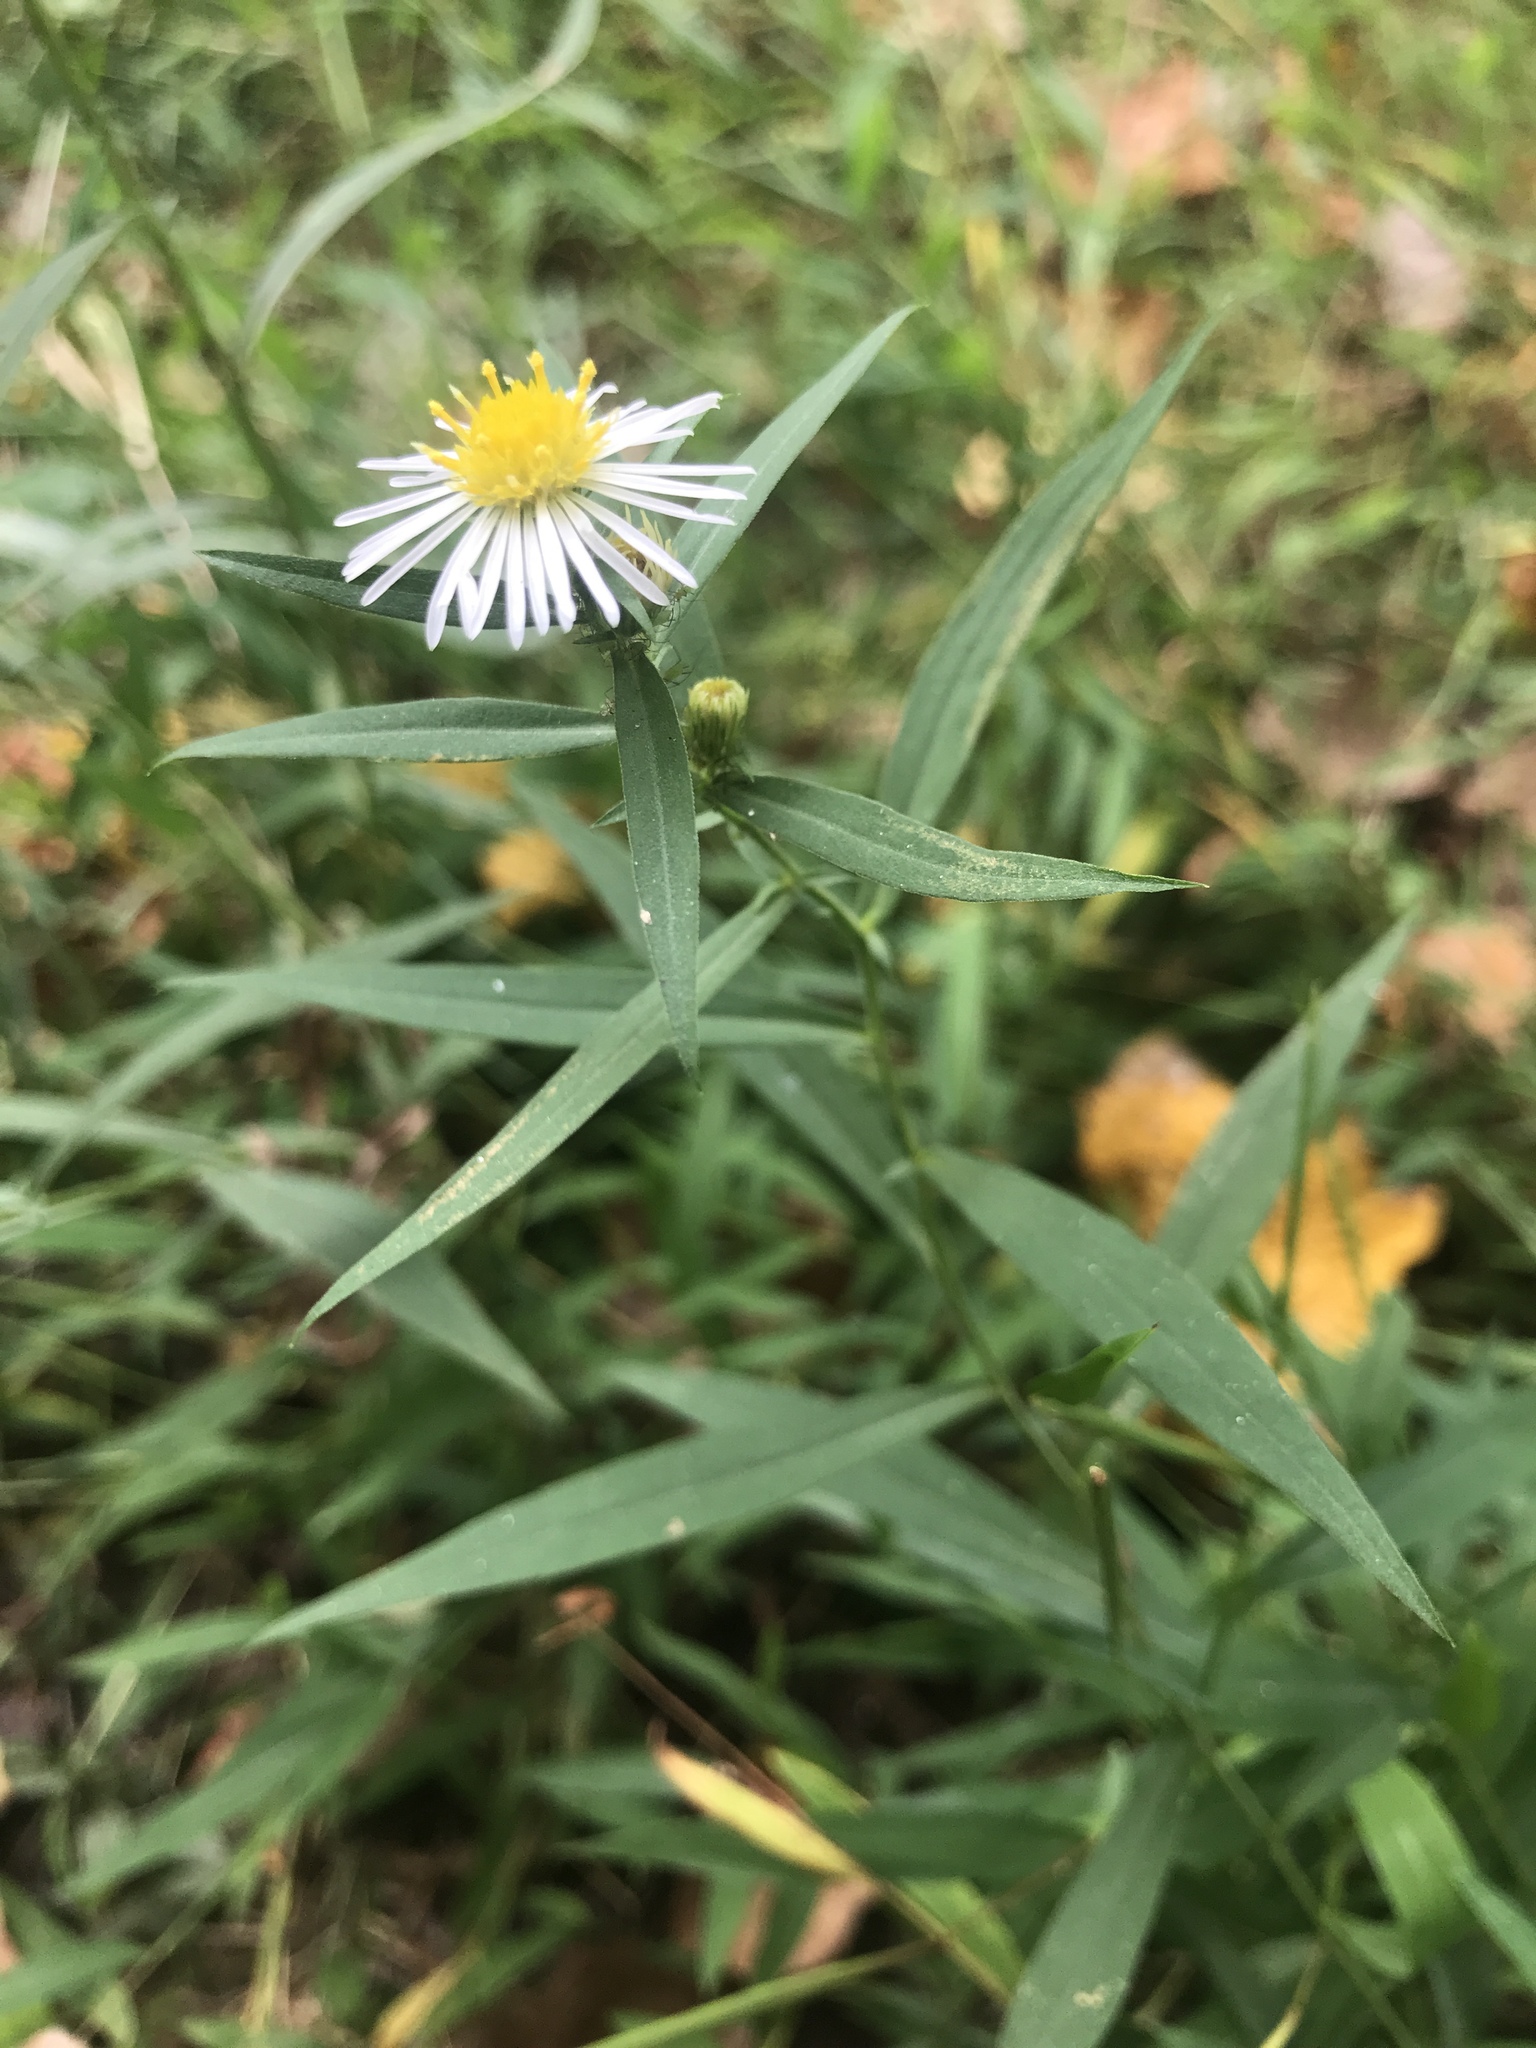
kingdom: Plantae
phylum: Tracheophyta
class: Magnoliopsida
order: Asterales
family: Asteraceae
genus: Symphyotrichum
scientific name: Symphyotrichum lanceolatum
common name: Panicled aster
